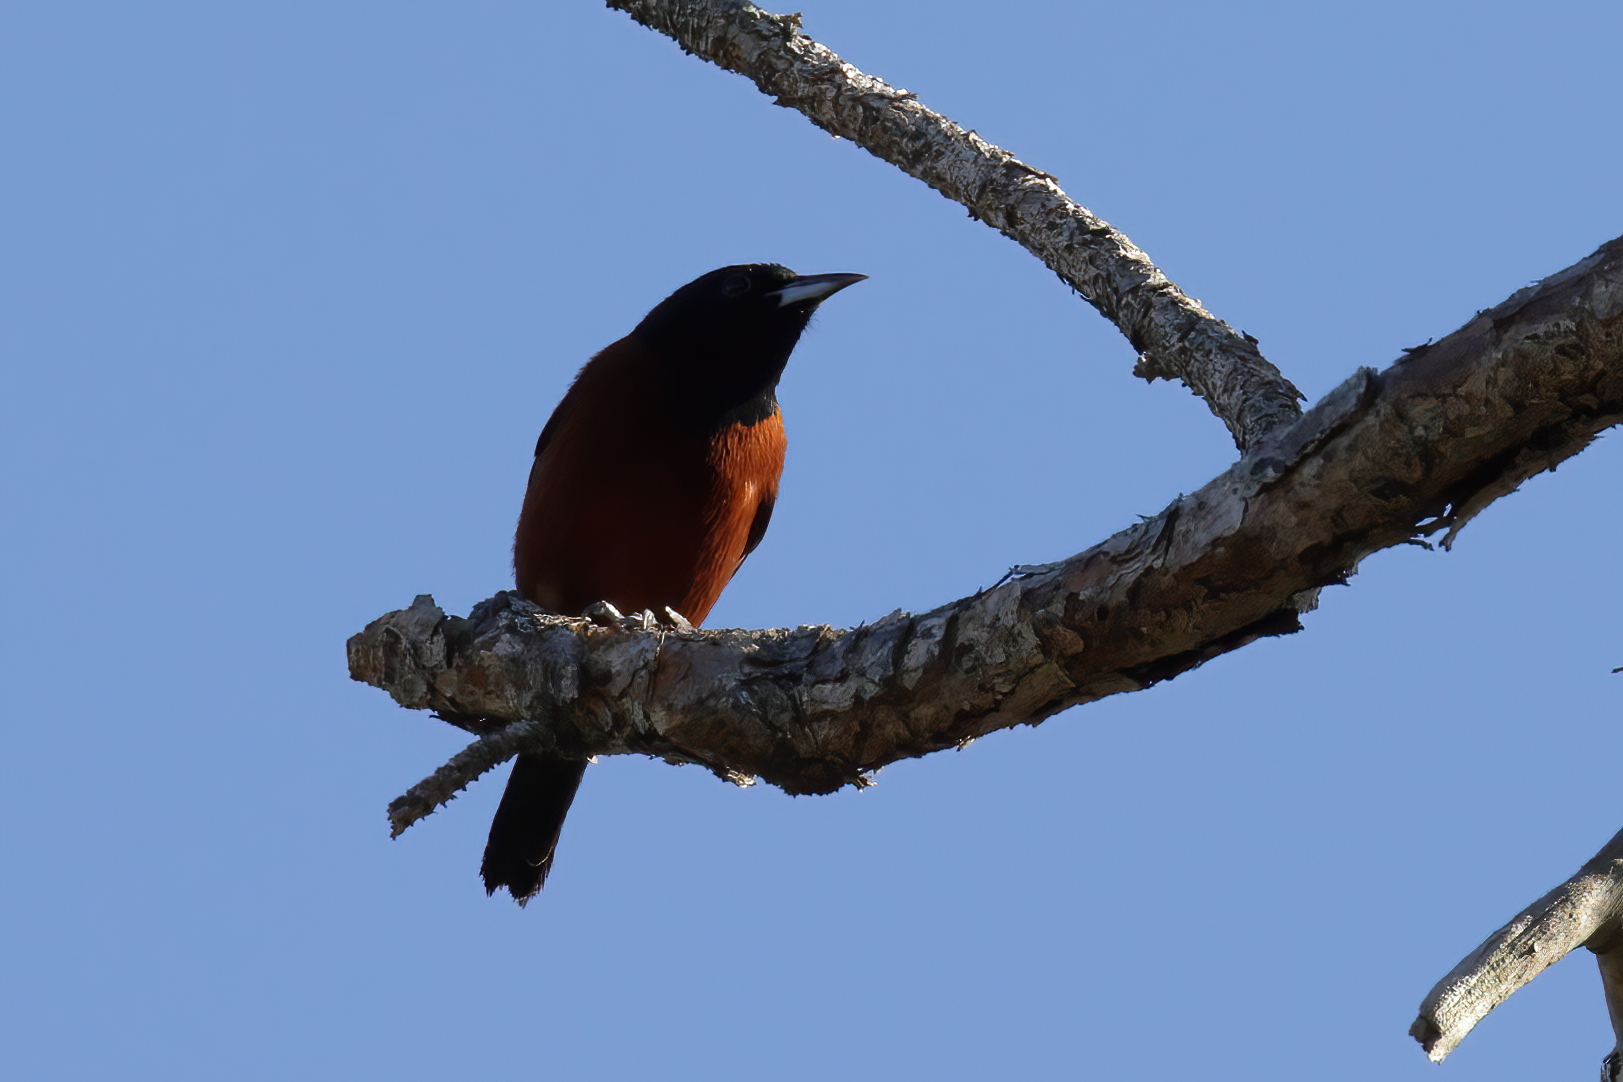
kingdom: Animalia
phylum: Chordata
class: Aves
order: Passeriformes
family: Icteridae
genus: Icterus
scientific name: Icterus spurius
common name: Orchard oriole
